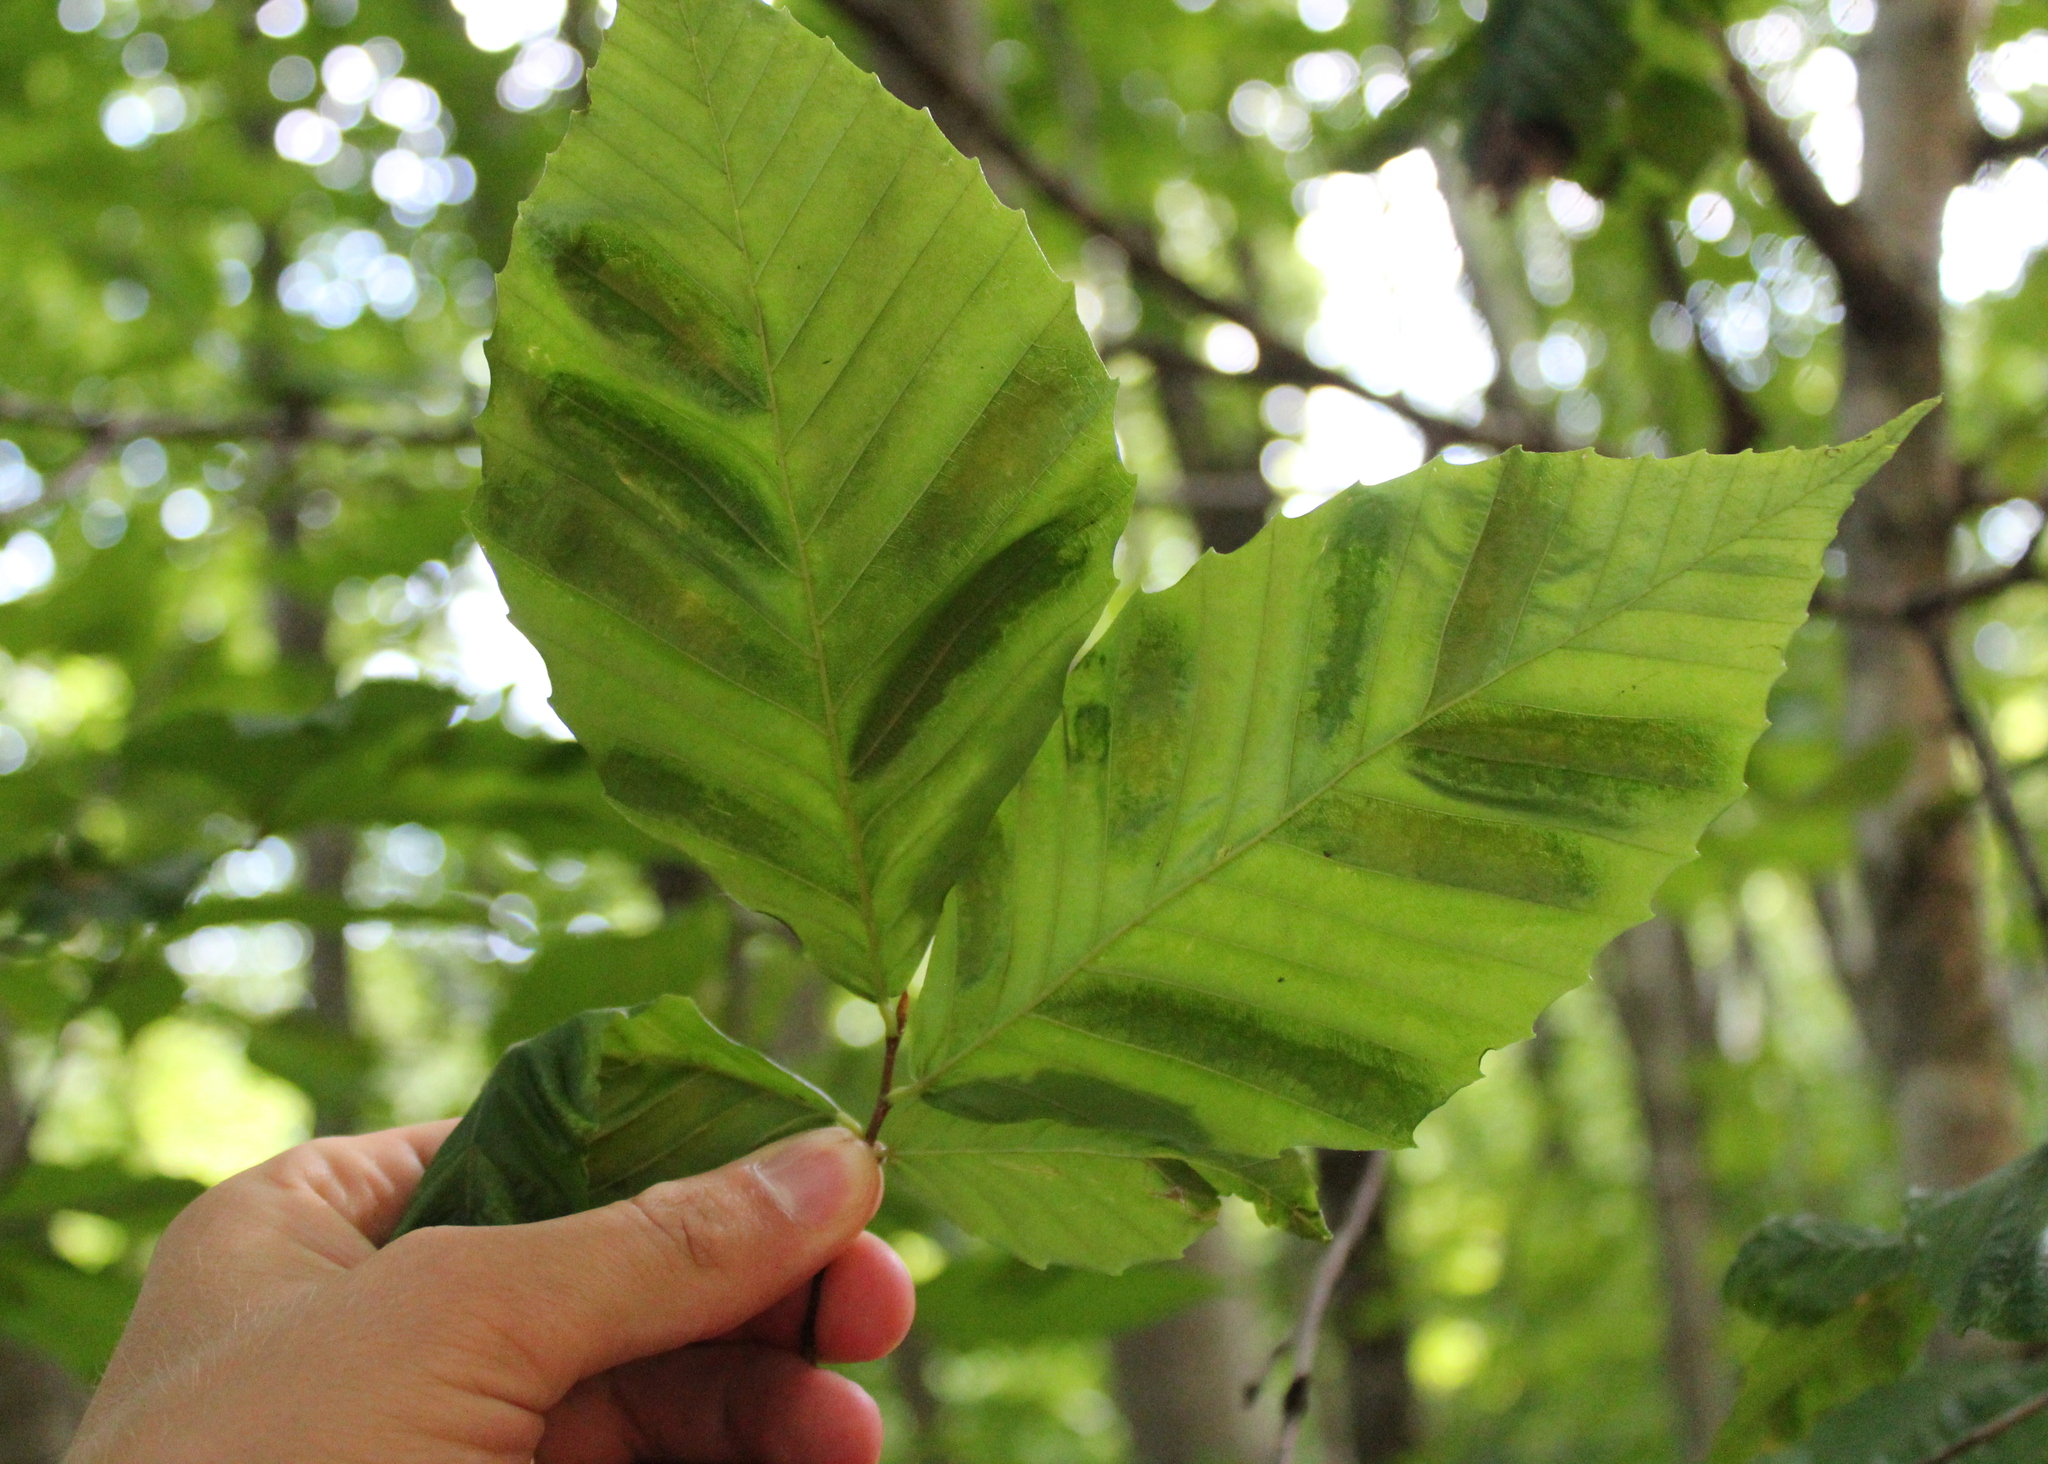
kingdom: Animalia
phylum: Nematoda
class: Chromadorea
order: Rhabditida
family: Anguinidae
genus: Litylenchus
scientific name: Litylenchus crenatae
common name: Beech leaf disease
